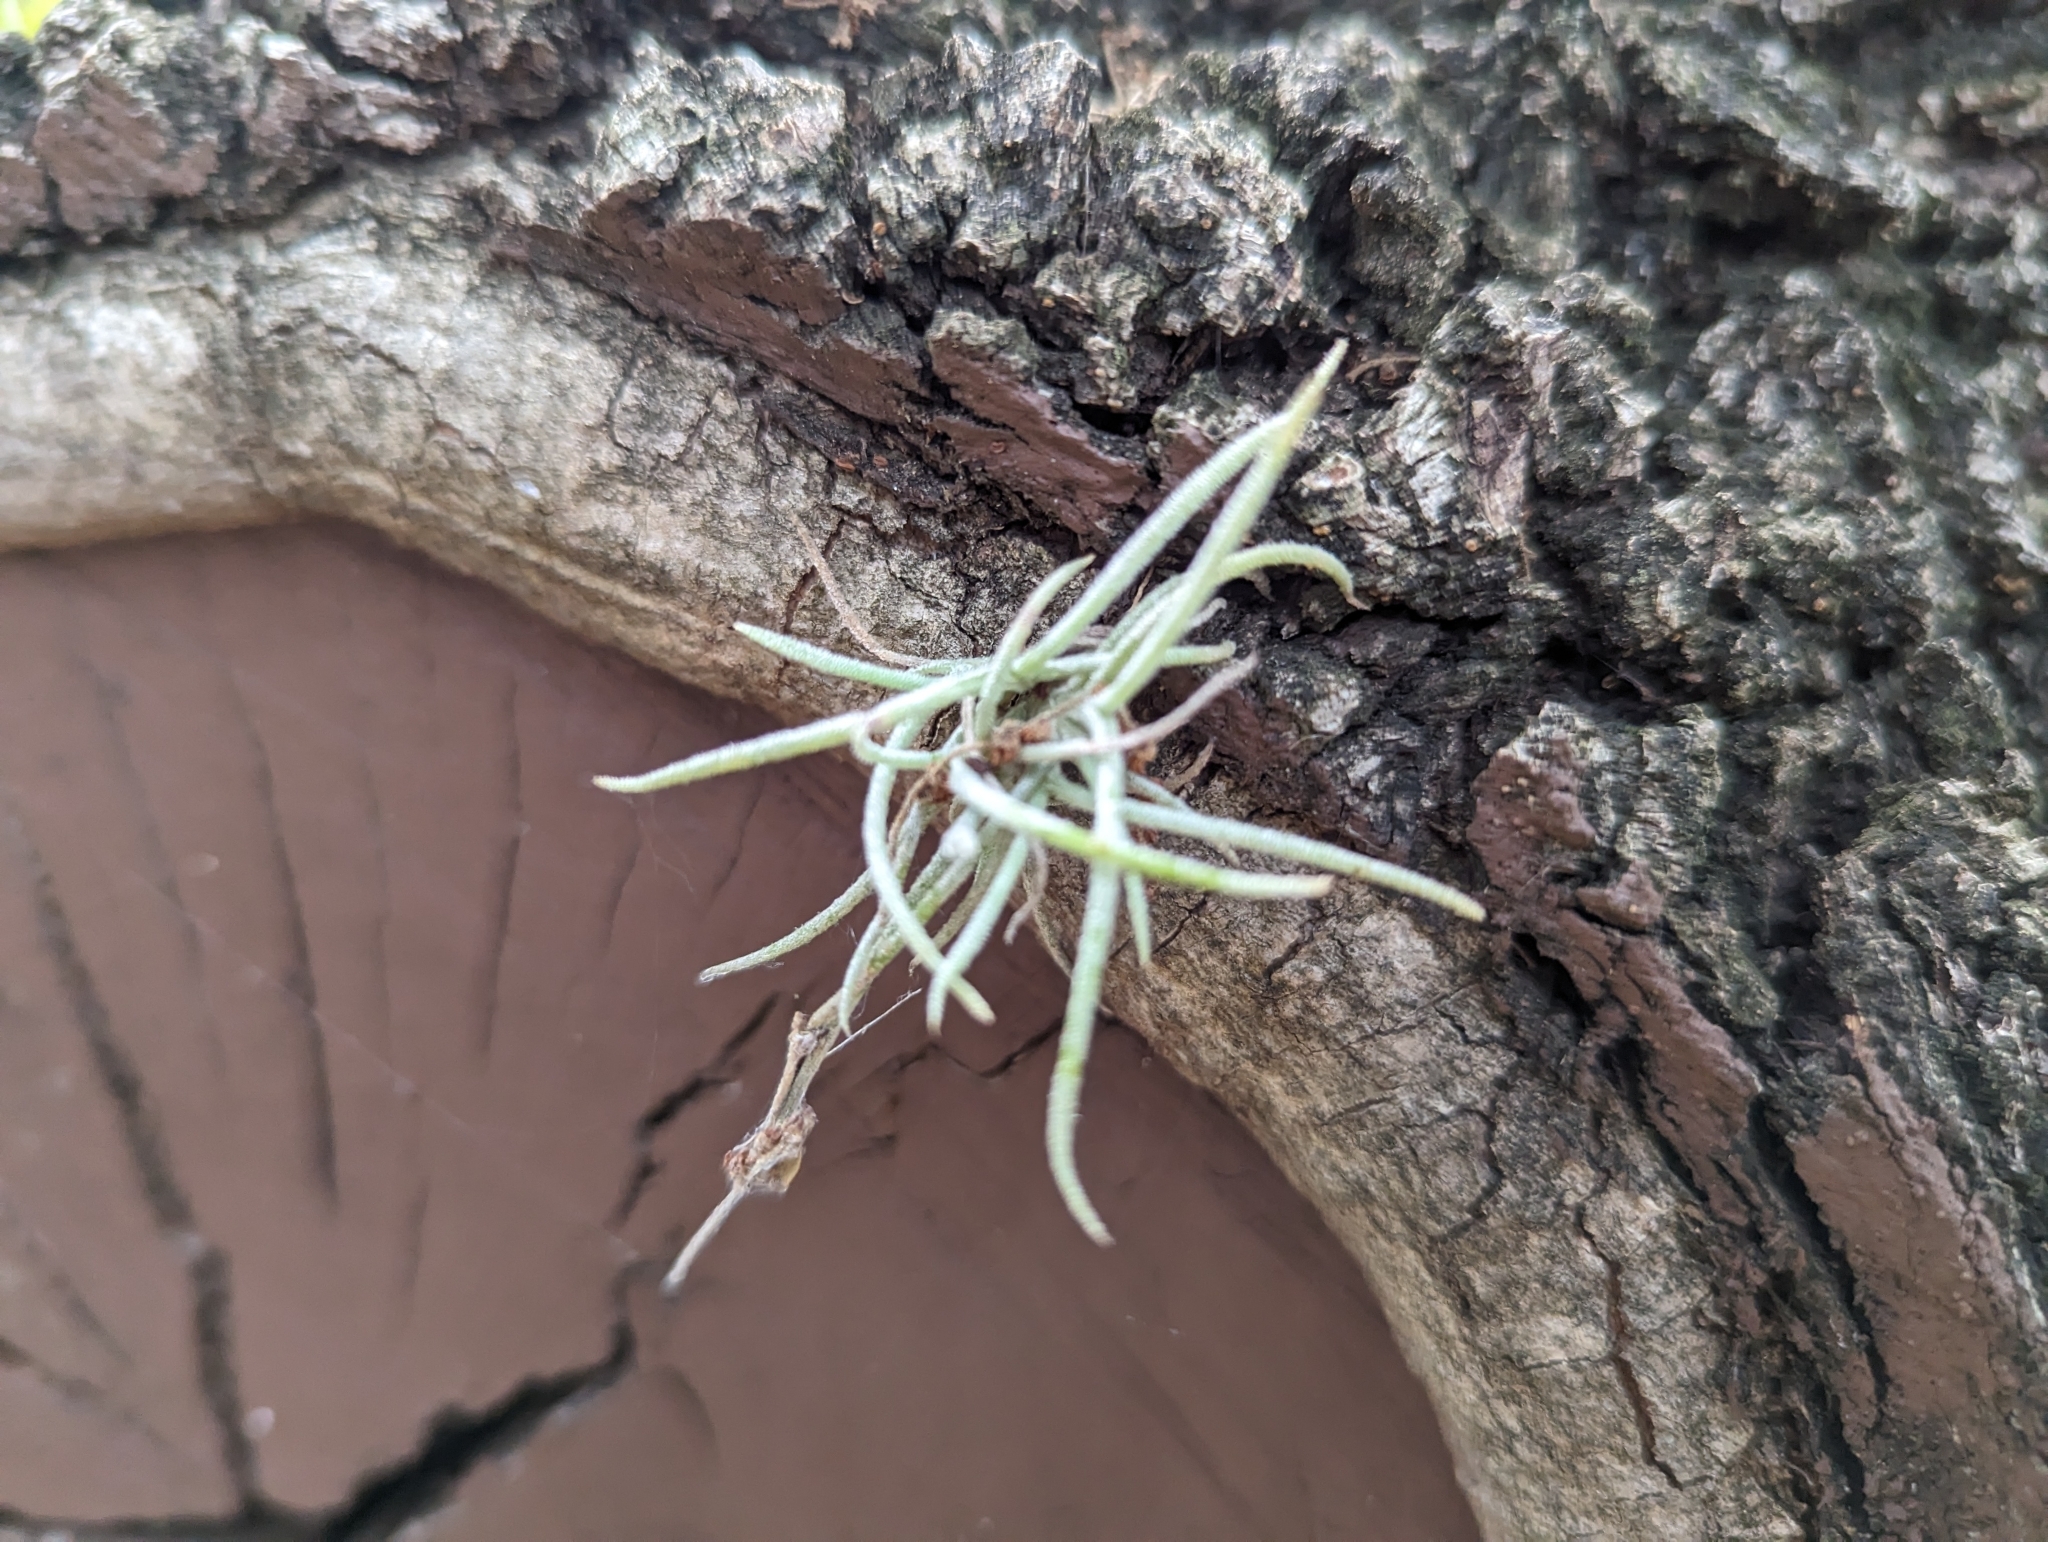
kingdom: Plantae
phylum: Tracheophyta
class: Liliopsida
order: Poales
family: Bromeliaceae
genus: Tillandsia
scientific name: Tillandsia recurvata
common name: Small ballmoss
